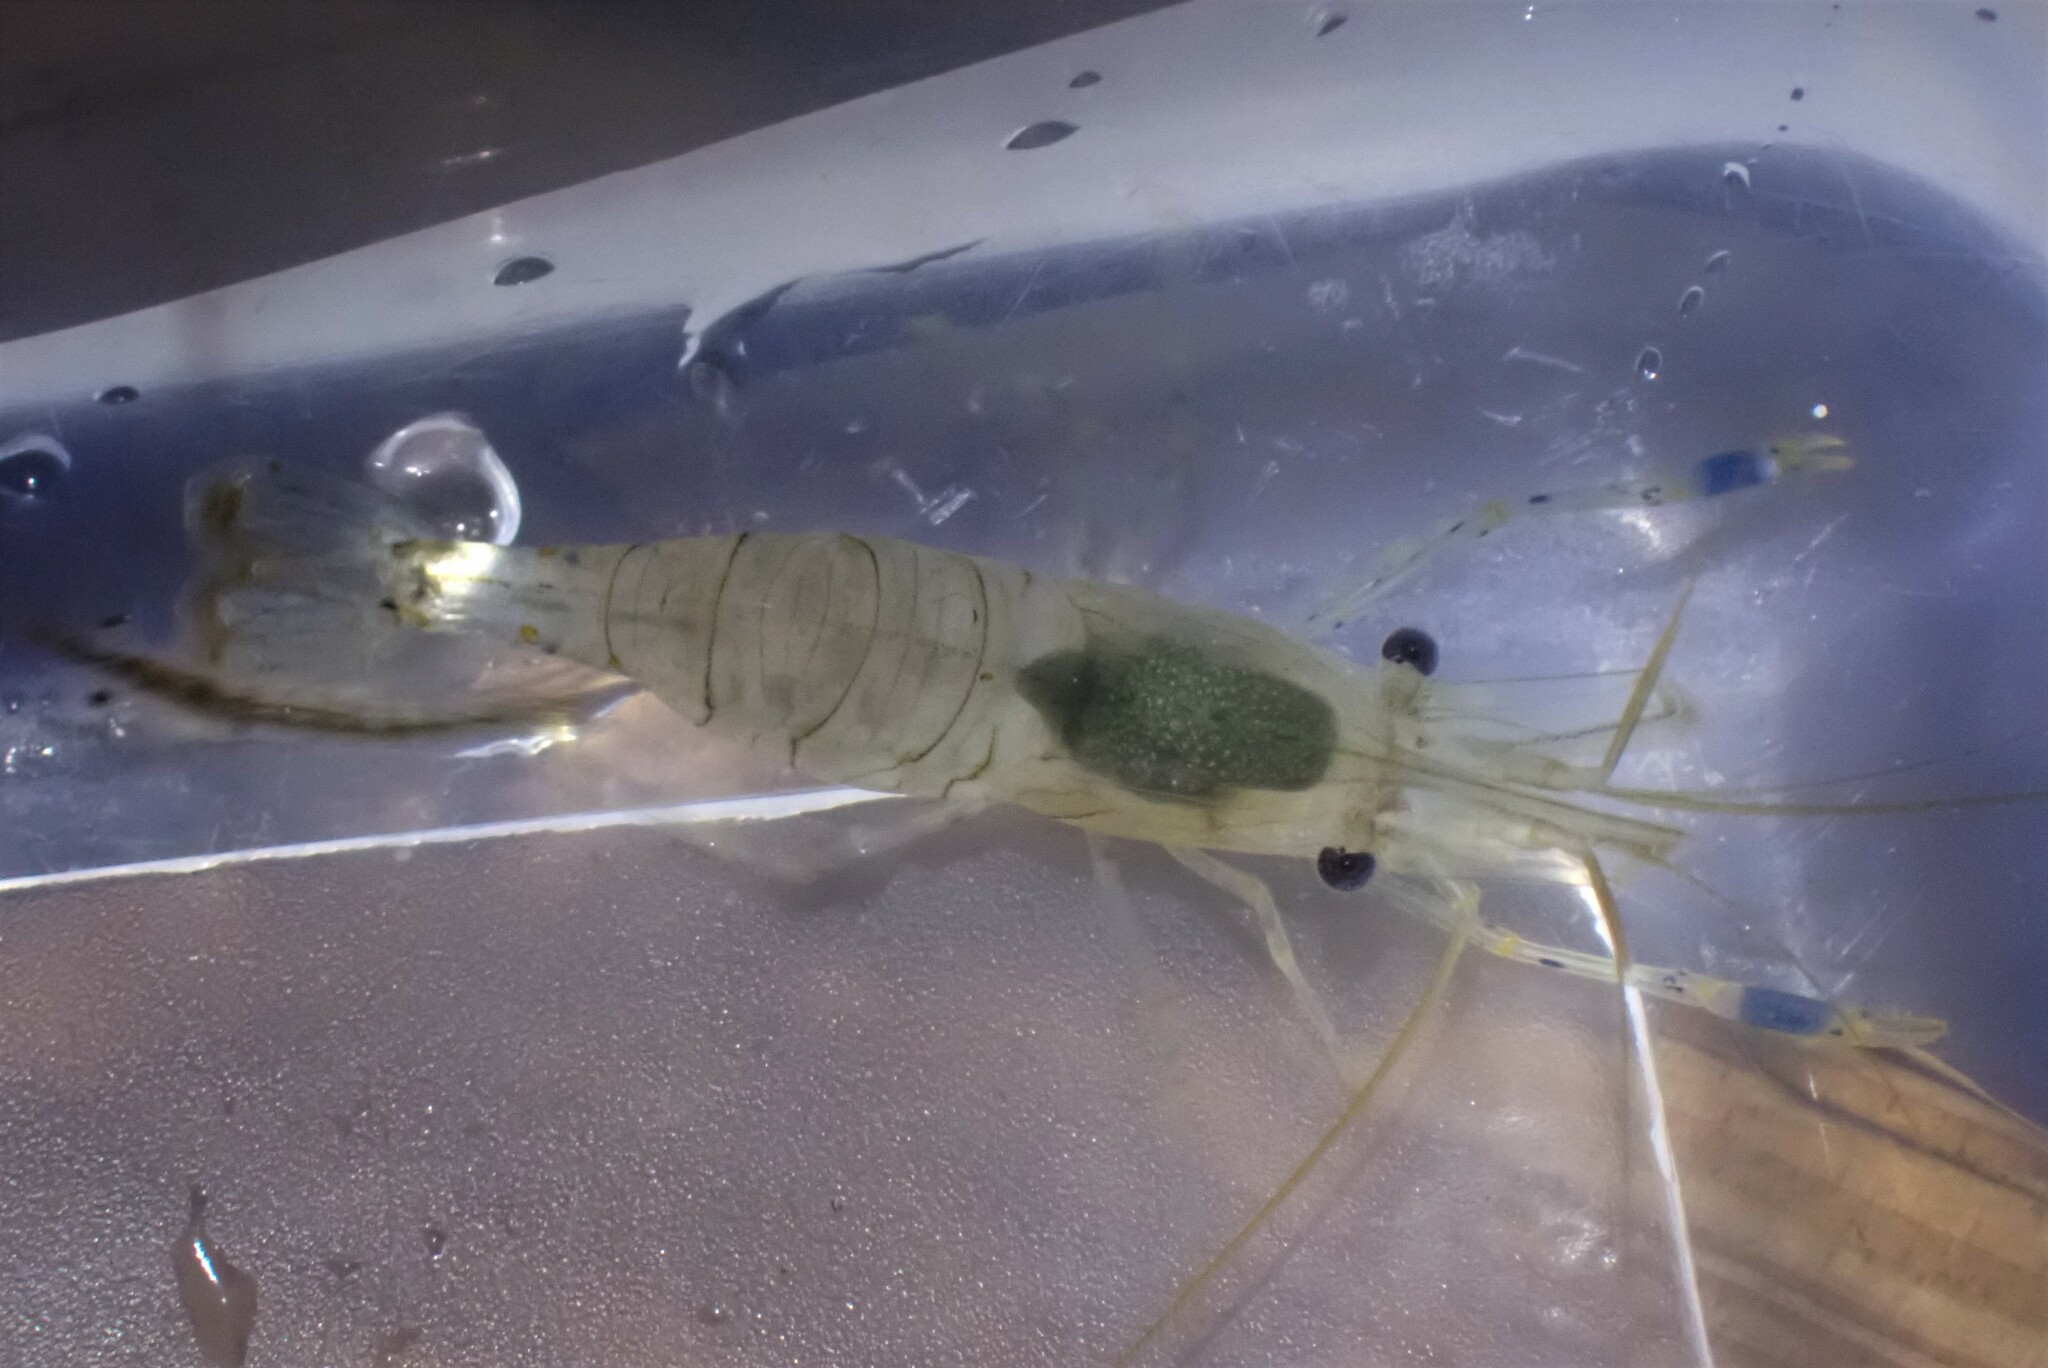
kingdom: Animalia
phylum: Arthropoda
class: Malacostraca
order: Decapoda
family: Palaemonidae
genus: Palaemon
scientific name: Palaemon elegans
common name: Grass prawm
